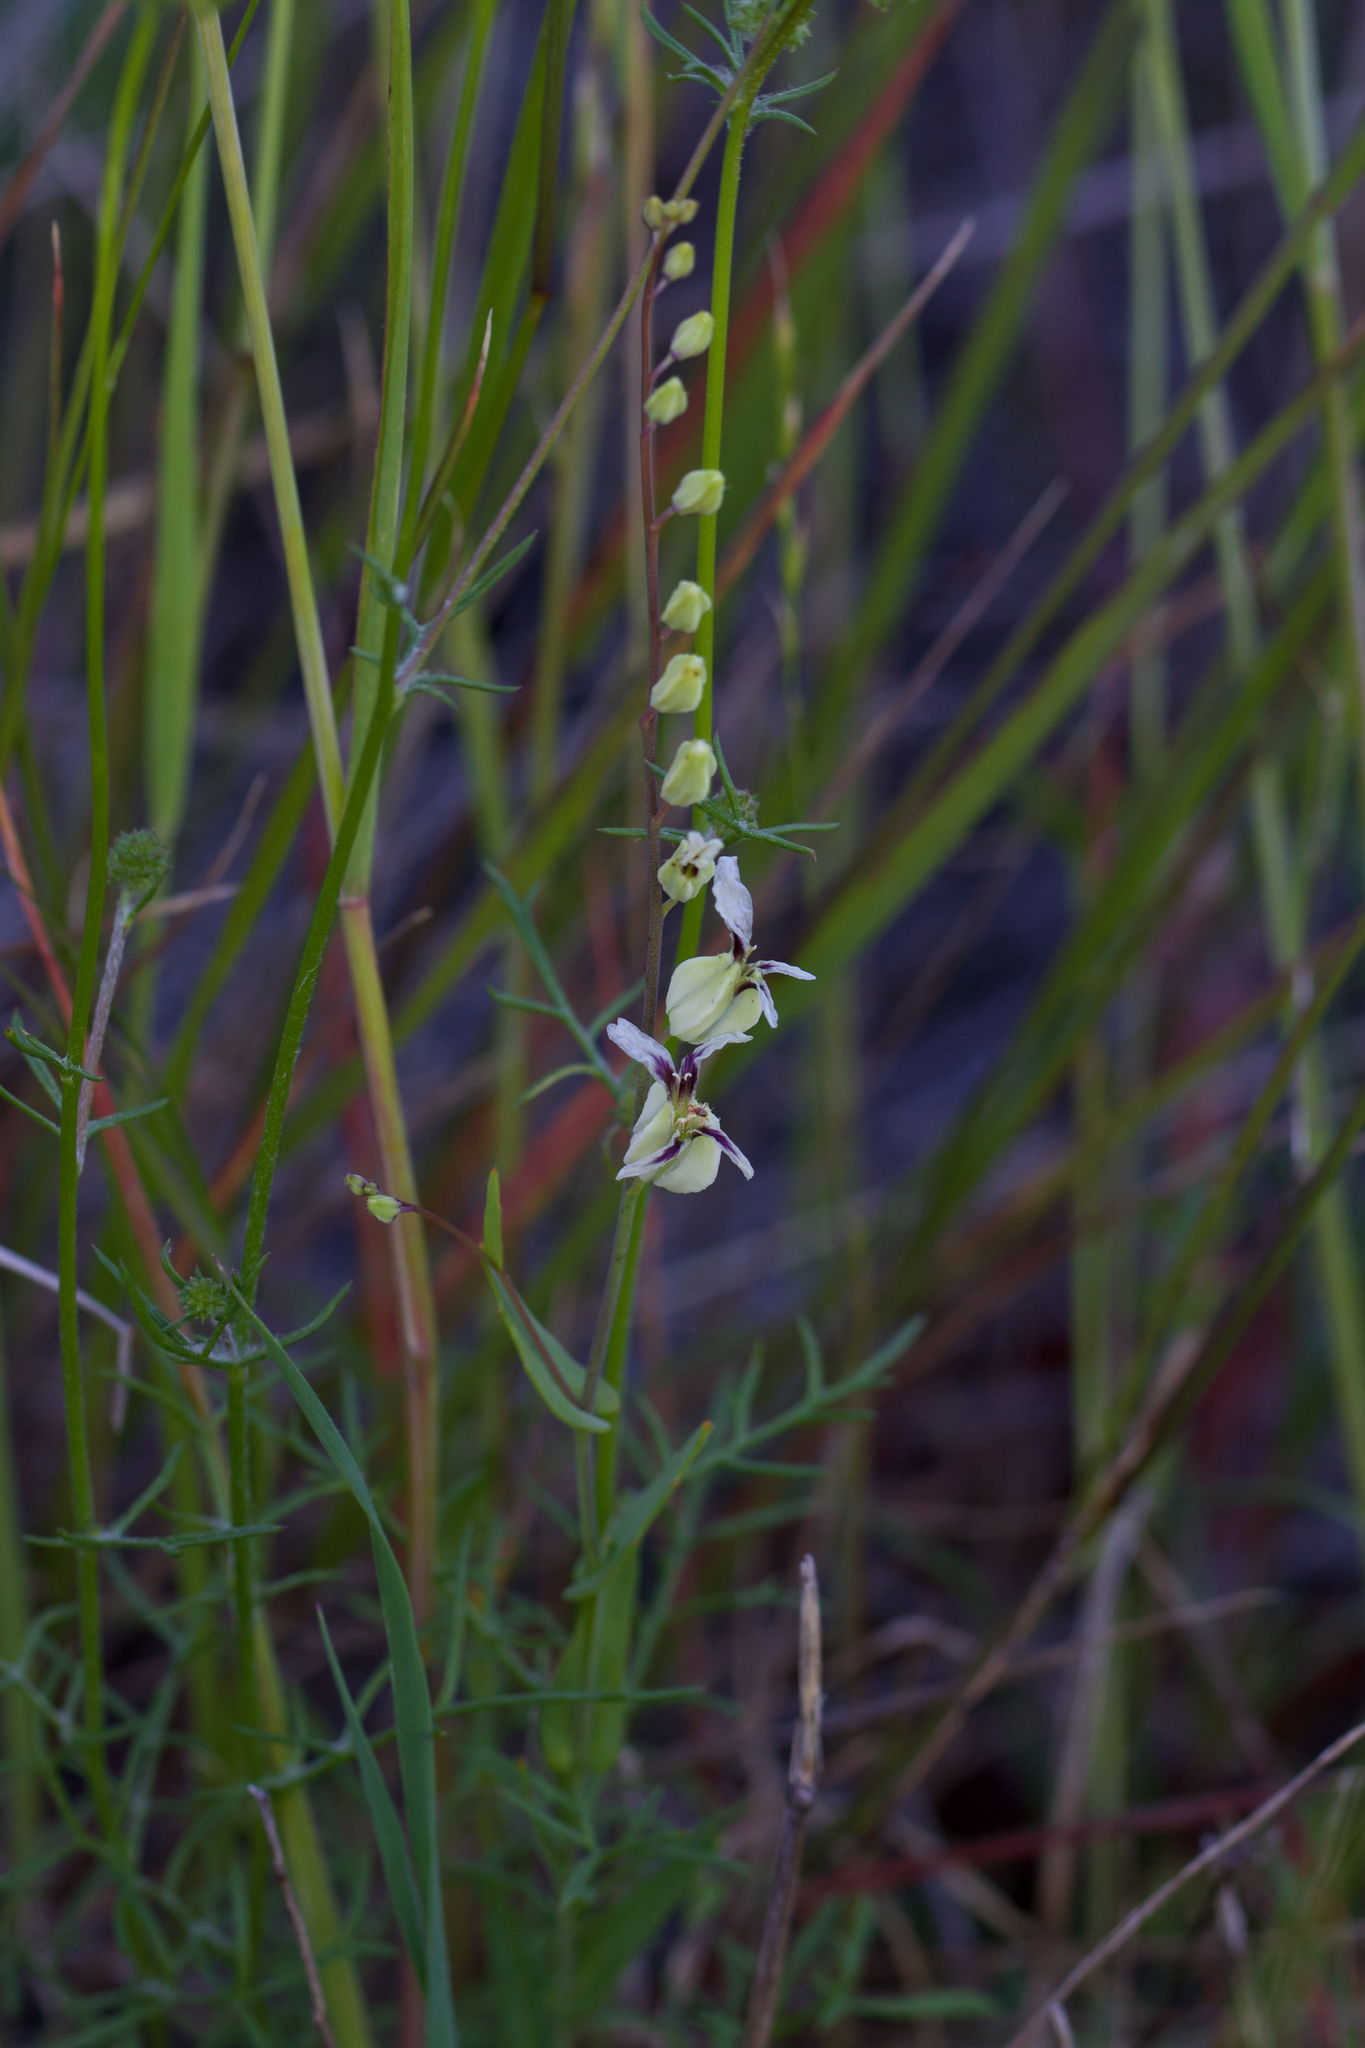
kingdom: Plantae
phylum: Tracheophyta
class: Magnoliopsida
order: Brassicales
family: Brassicaceae
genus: Streptanthus
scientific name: Streptanthus glandulosus
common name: Jewel-flower
